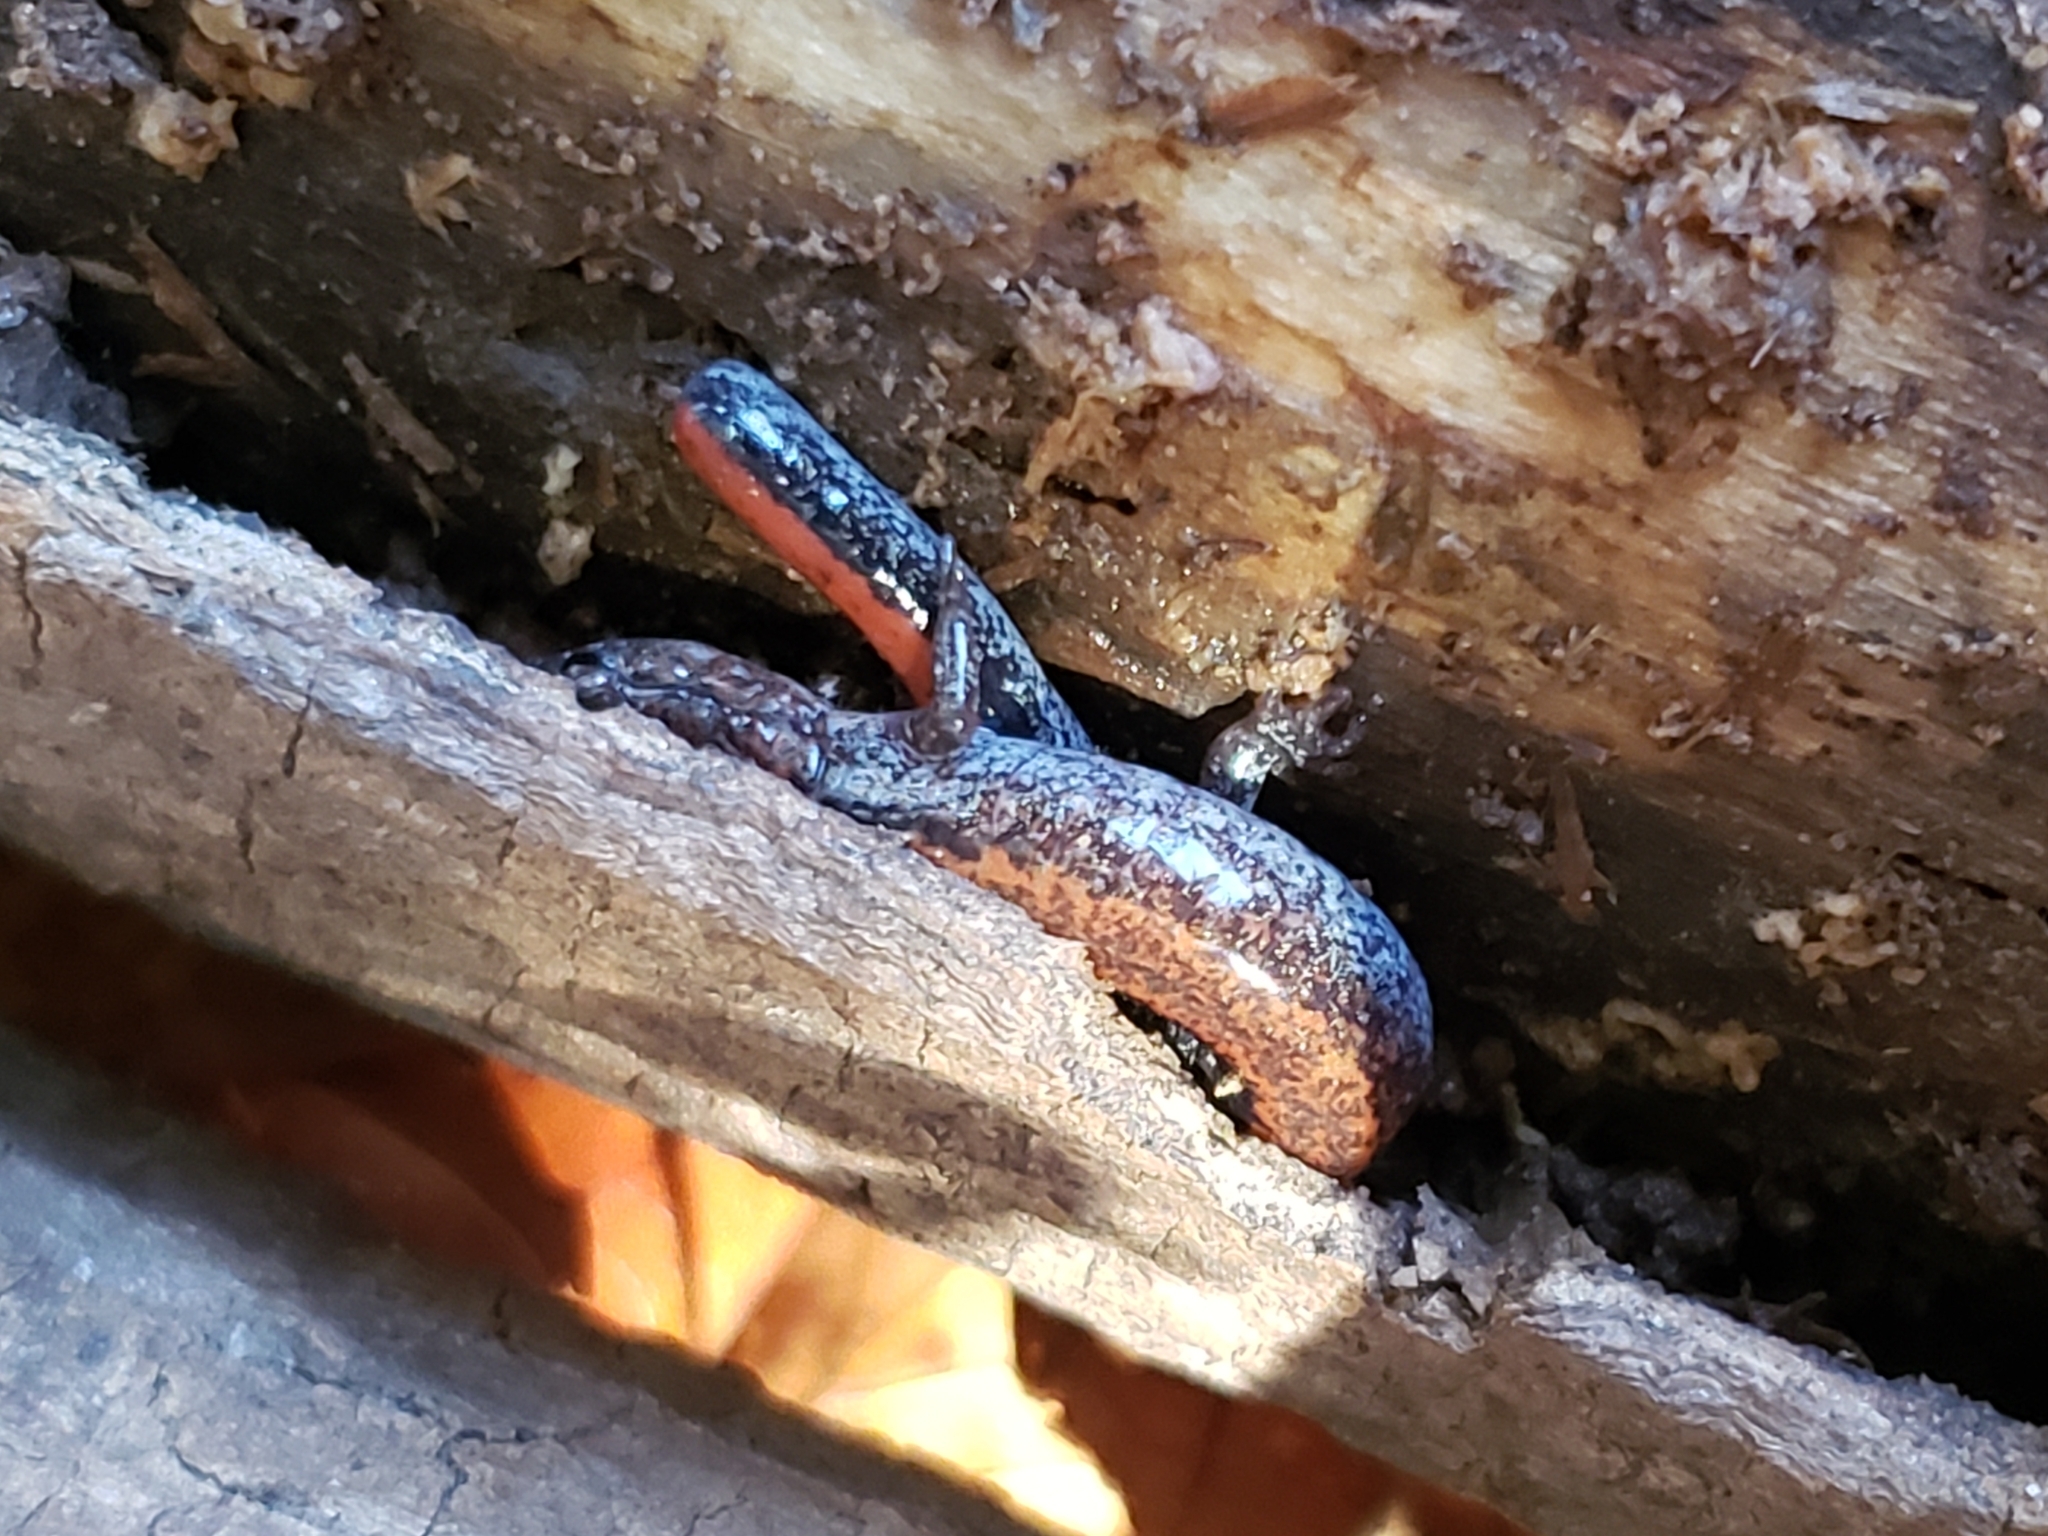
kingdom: Animalia
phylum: Chordata
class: Amphibia
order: Caudata
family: Plethodontidae
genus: Plethodon
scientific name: Plethodon cinereus
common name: Redback salamander
